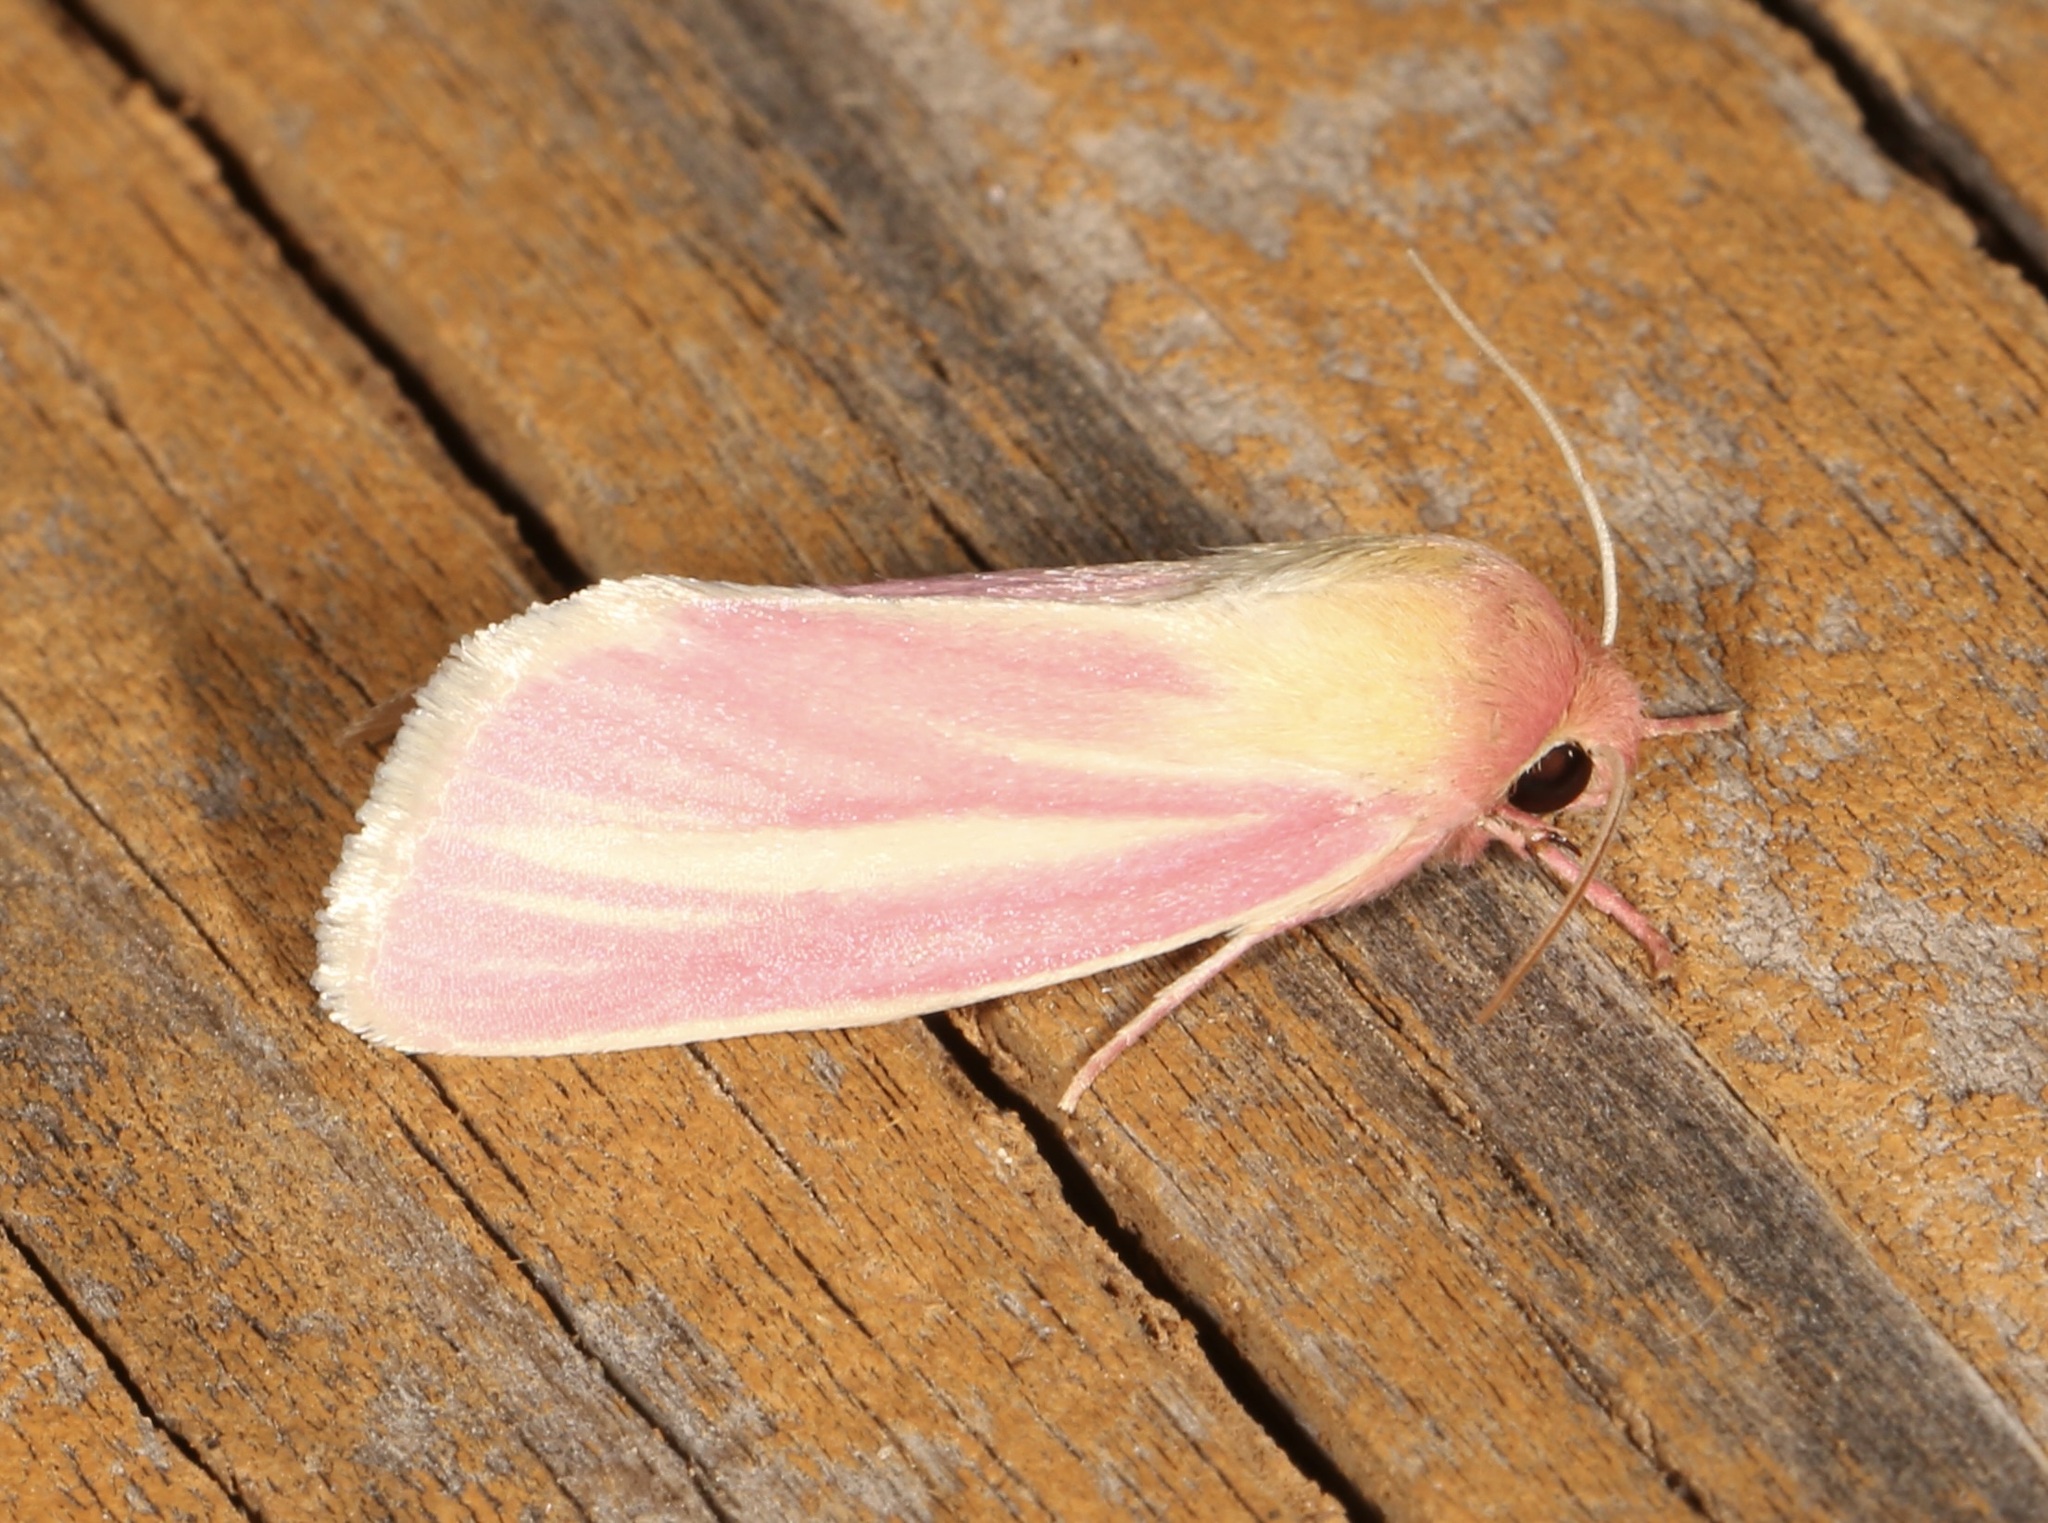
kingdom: Animalia
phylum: Arthropoda
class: Insecta
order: Lepidoptera
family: Noctuidae
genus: Heliocheilus
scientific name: Heliocheilus julia
